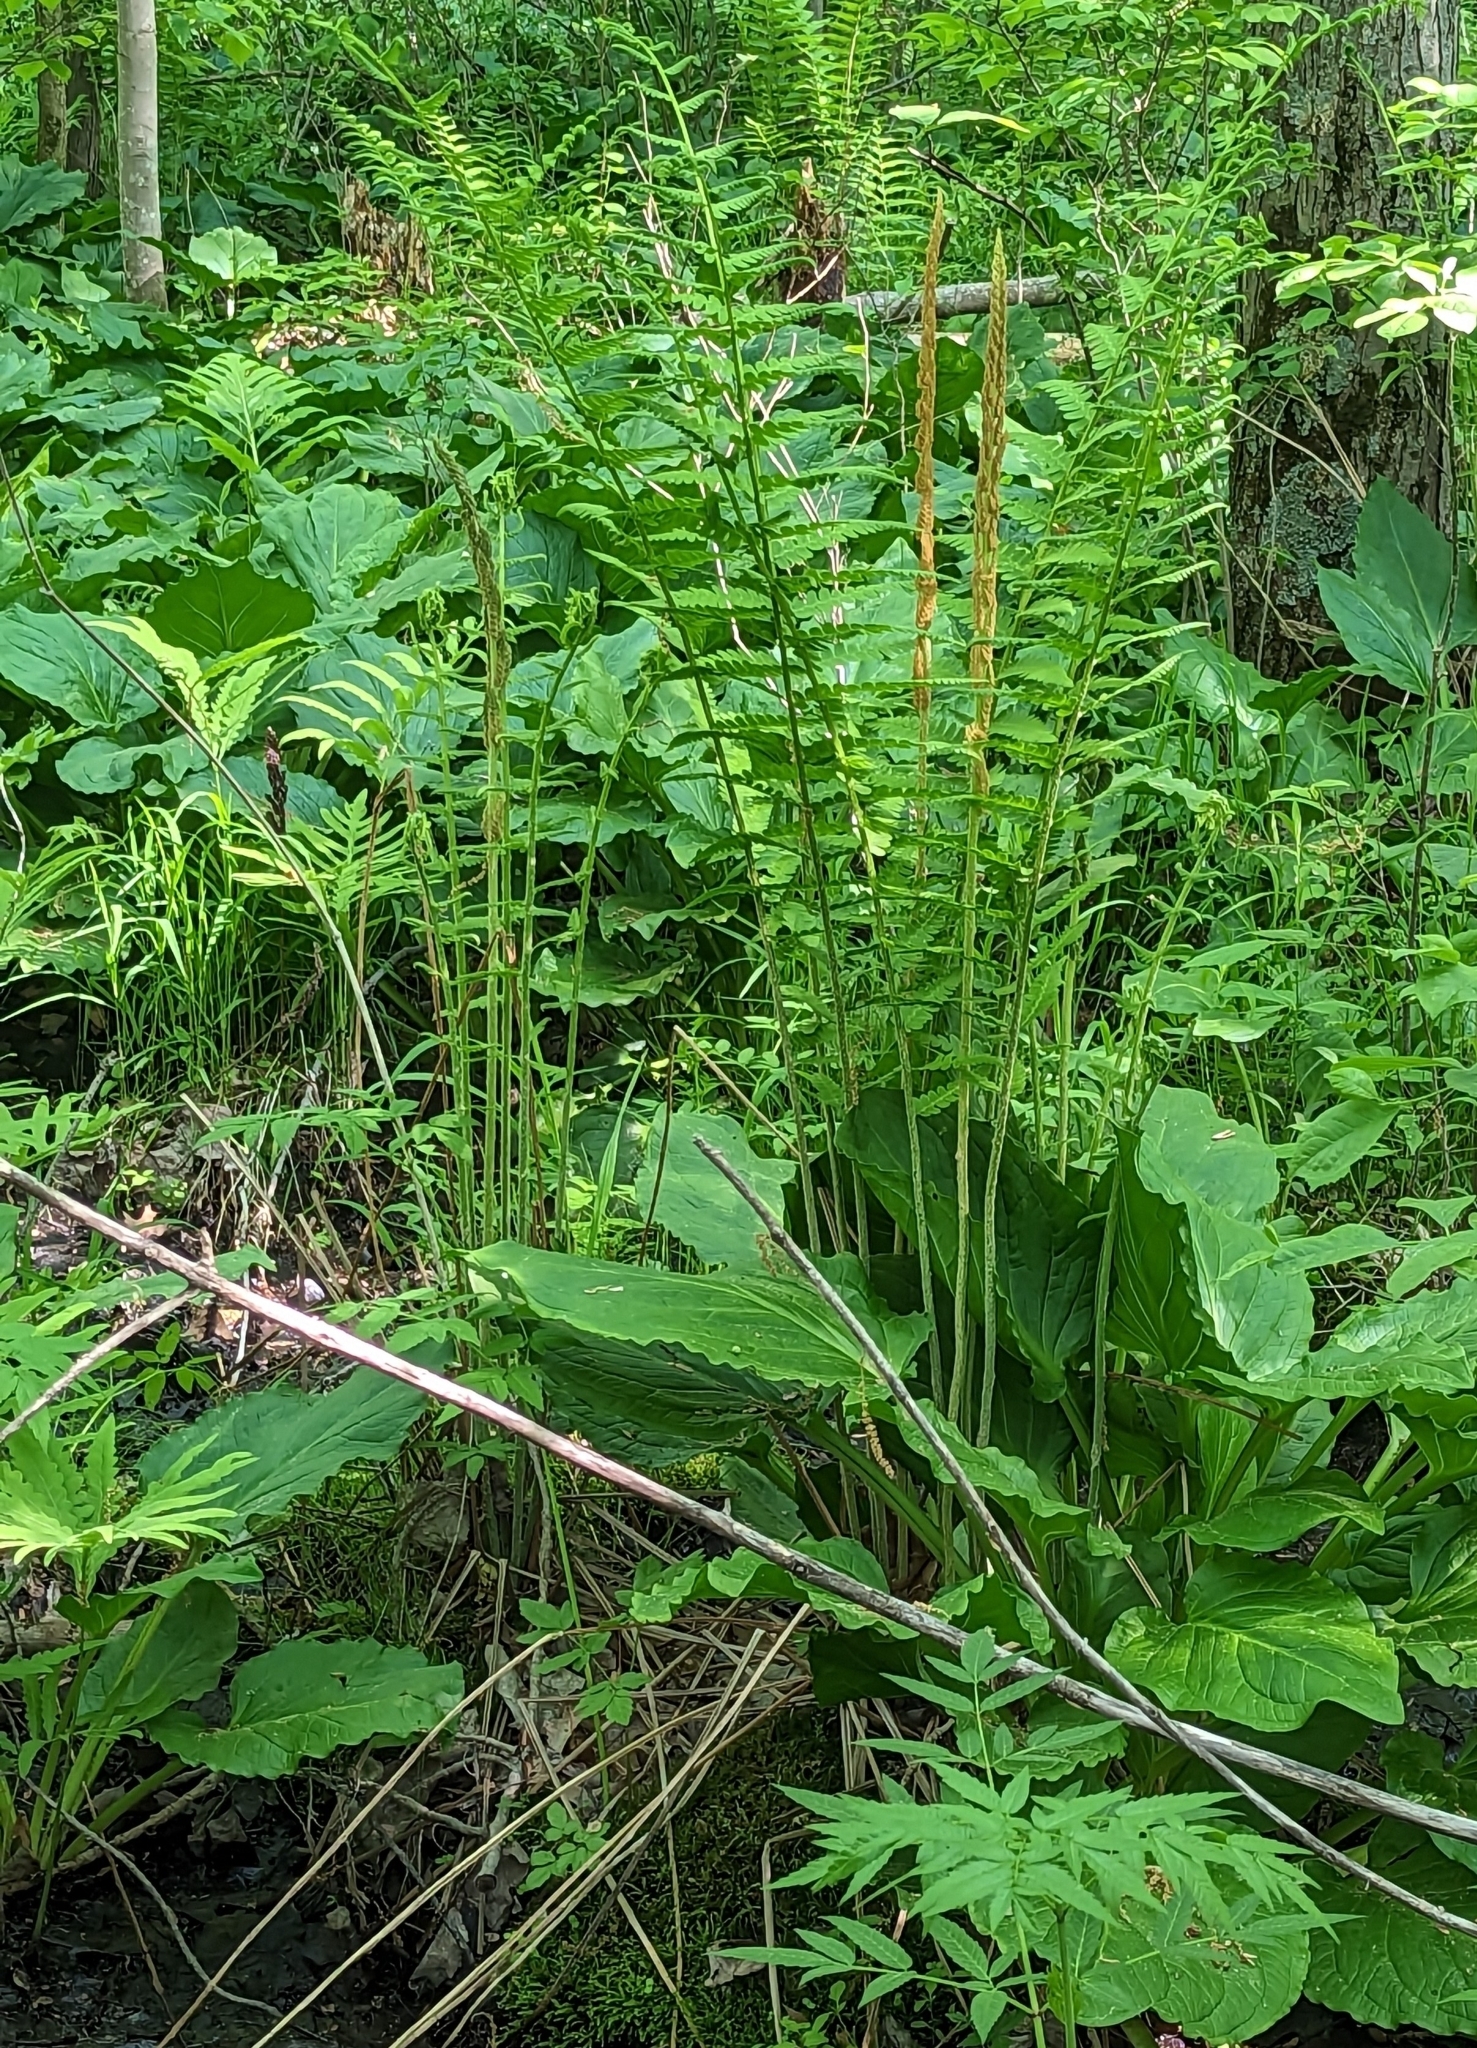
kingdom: Plantae
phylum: Tracheophyta
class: Polypodiopsida
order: Osmundales
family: Osmundaceae
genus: Osmundastrum
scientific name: Osmundastrum cinnamomeum
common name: Cinnamon fern
